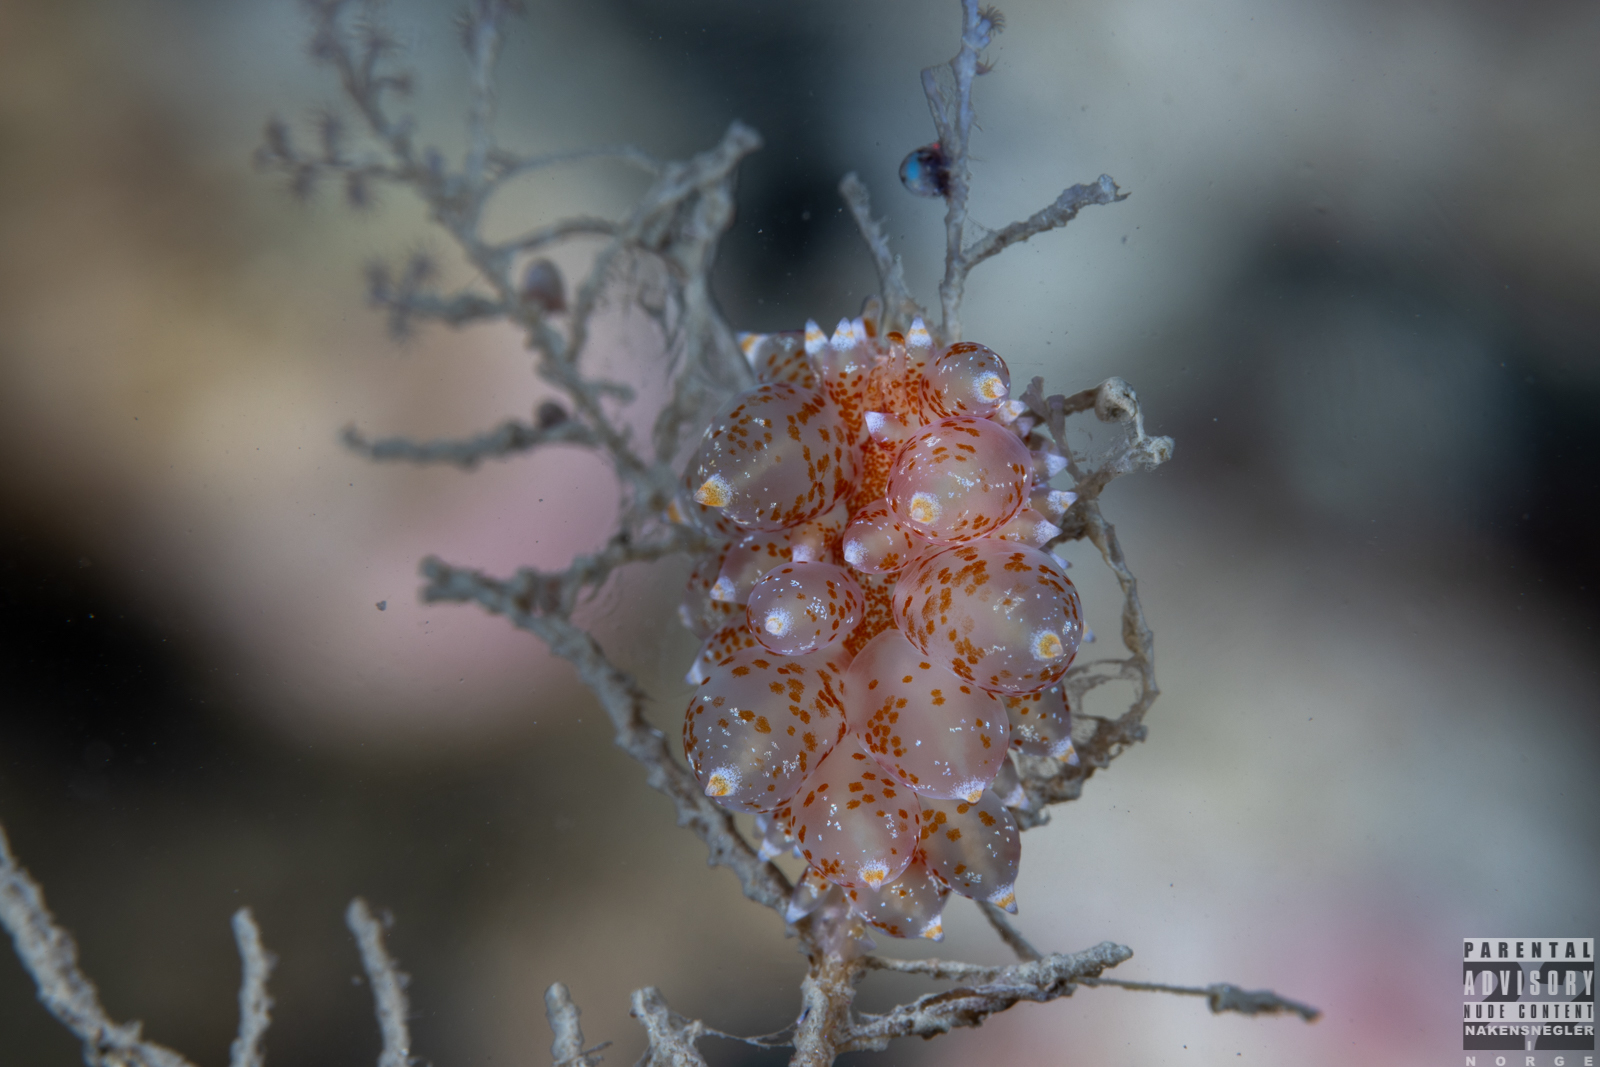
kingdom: Animalia
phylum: Mollusca
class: Gastropoda
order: Nudibranchia
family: Eubranchidae
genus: Amphorina
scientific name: Amphorina pallida
